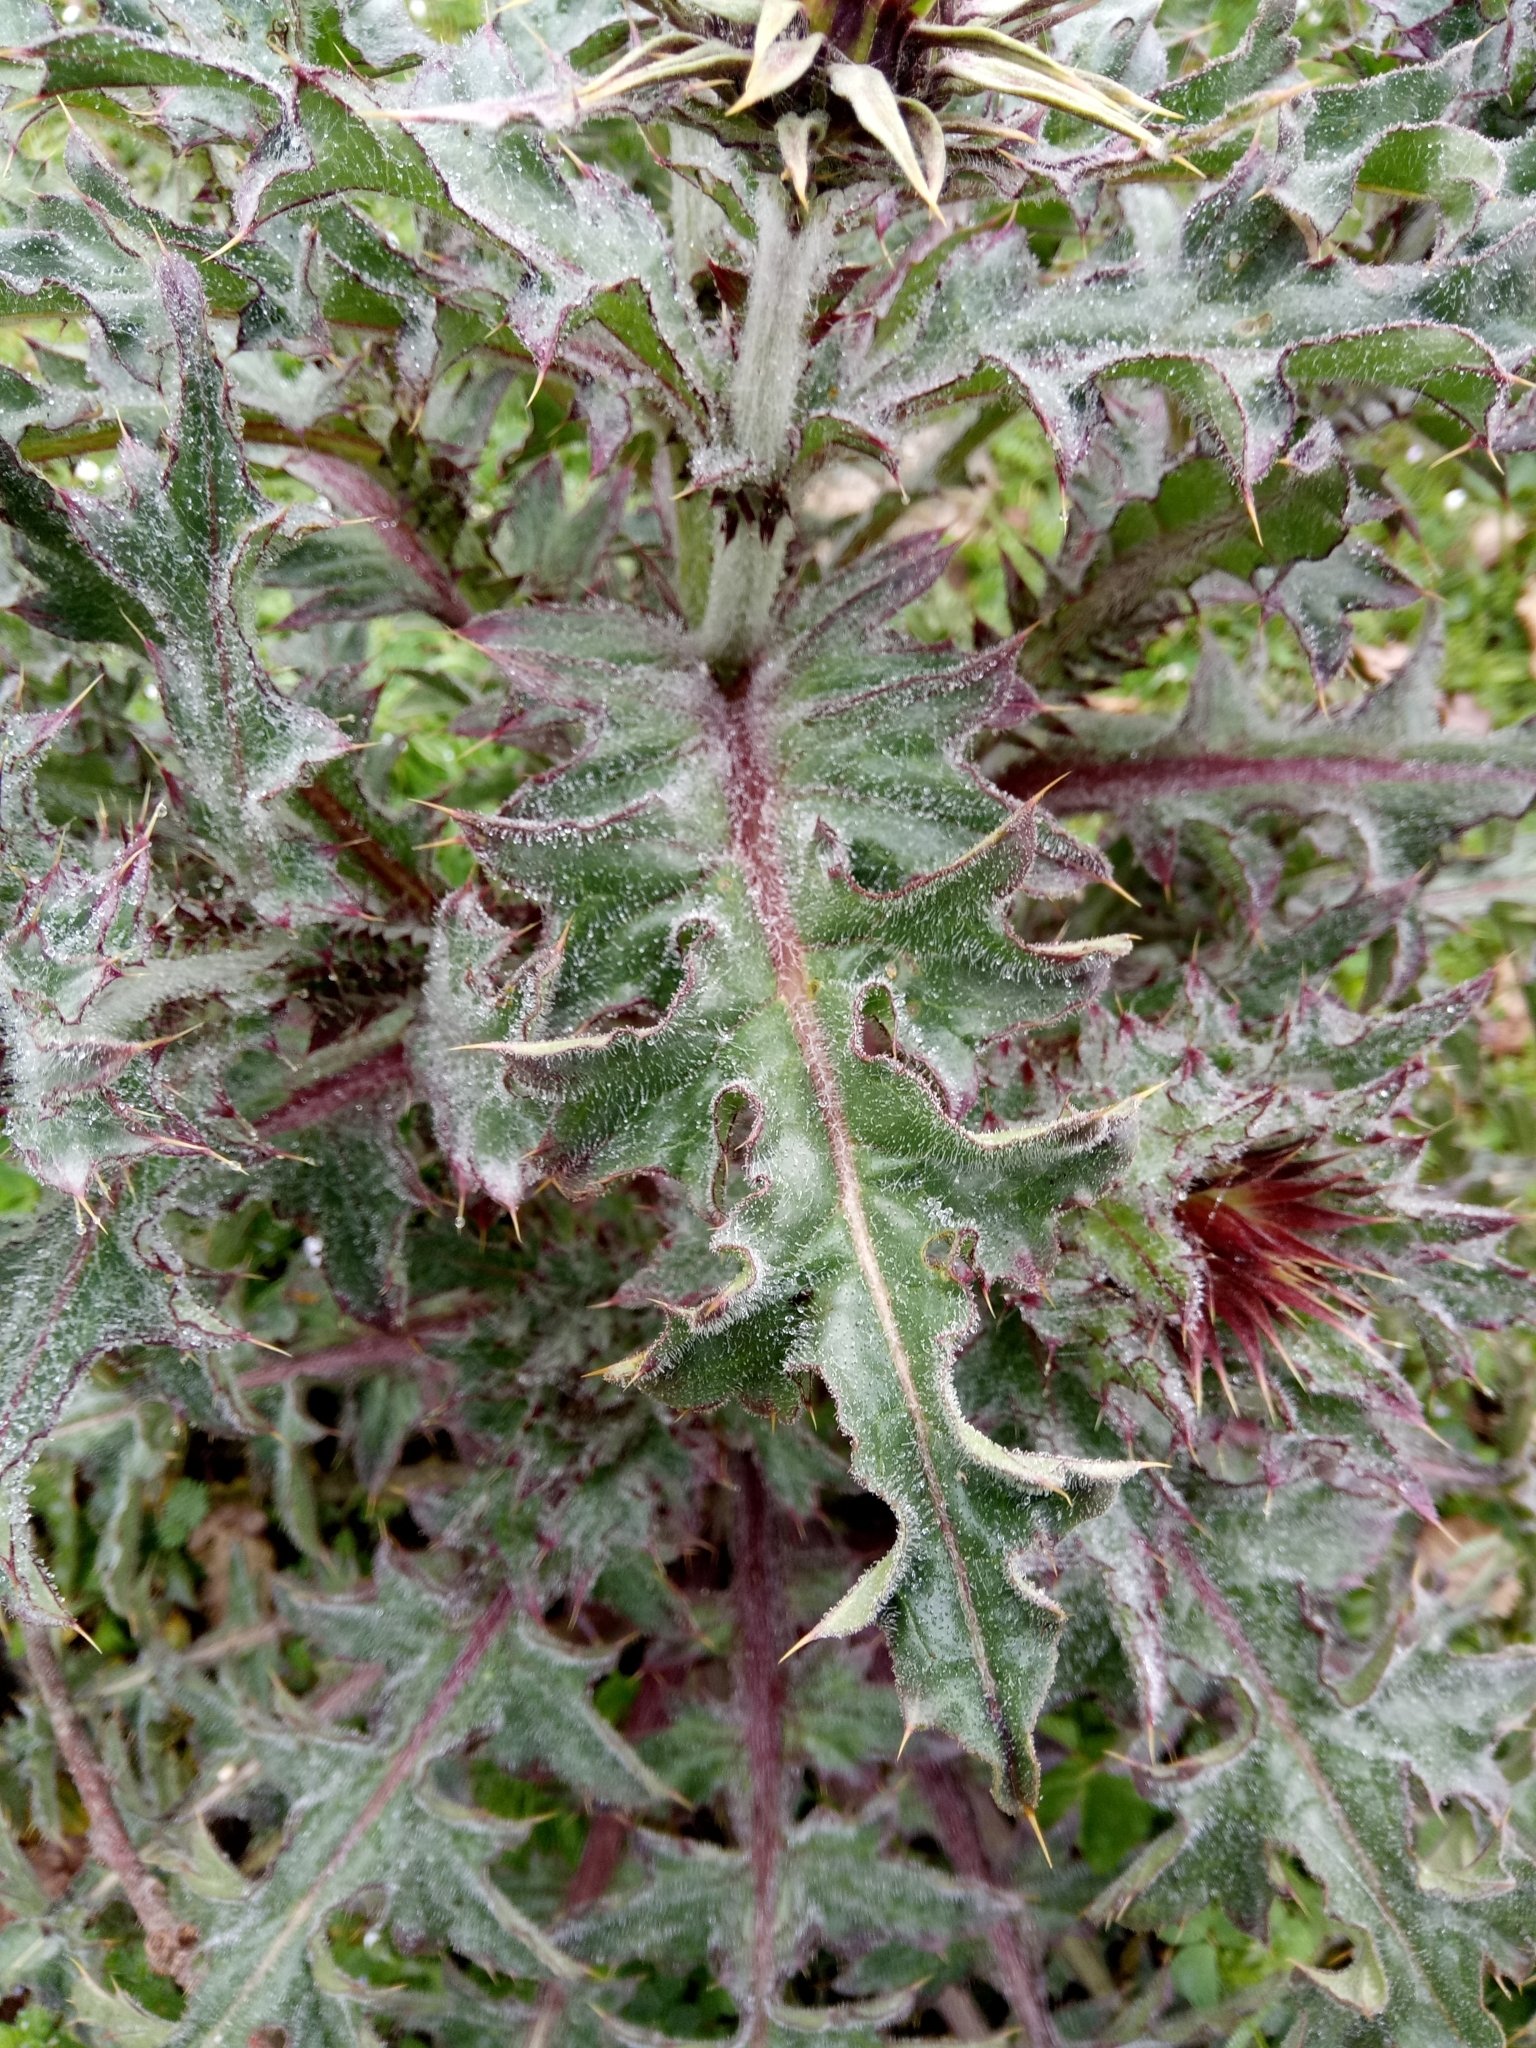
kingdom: Plantae
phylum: Tracheophyta
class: Magnoliopsida
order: Asterales
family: Asteraceae
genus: Carduus
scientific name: Carduus macrocephalus
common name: Giant thistle
